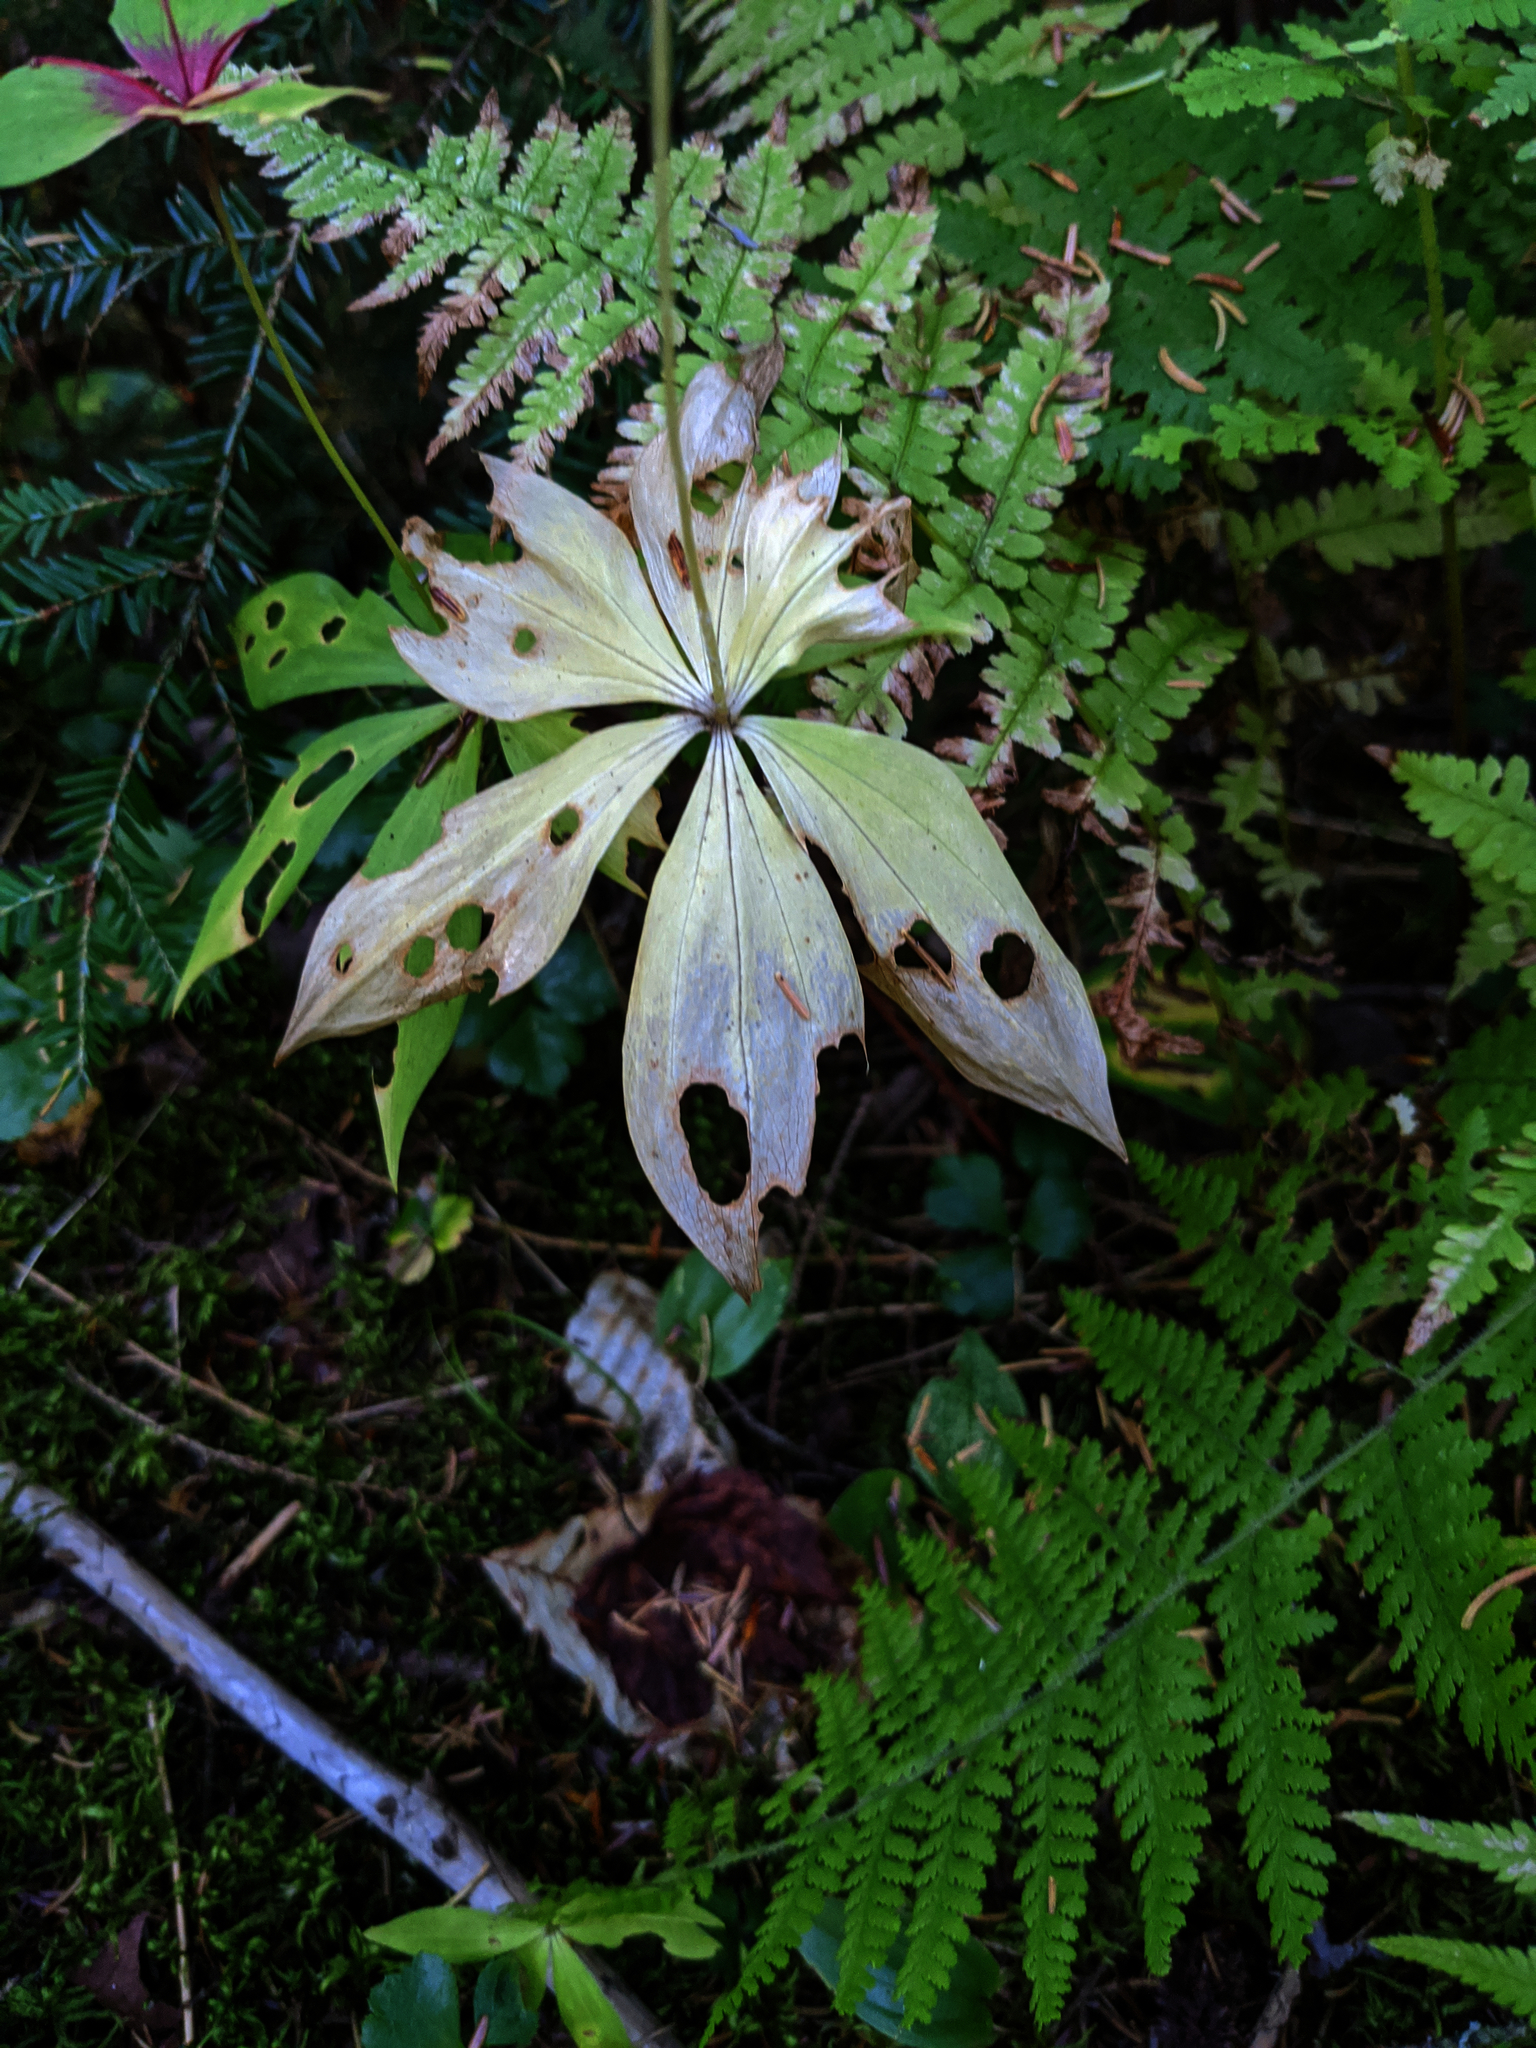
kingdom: Plantae
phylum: Tracheophyta
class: Liliopsida
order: Liliales
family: Liliaceae
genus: Medeola
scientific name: Medeola virginiana
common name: Indian cucumber-root
